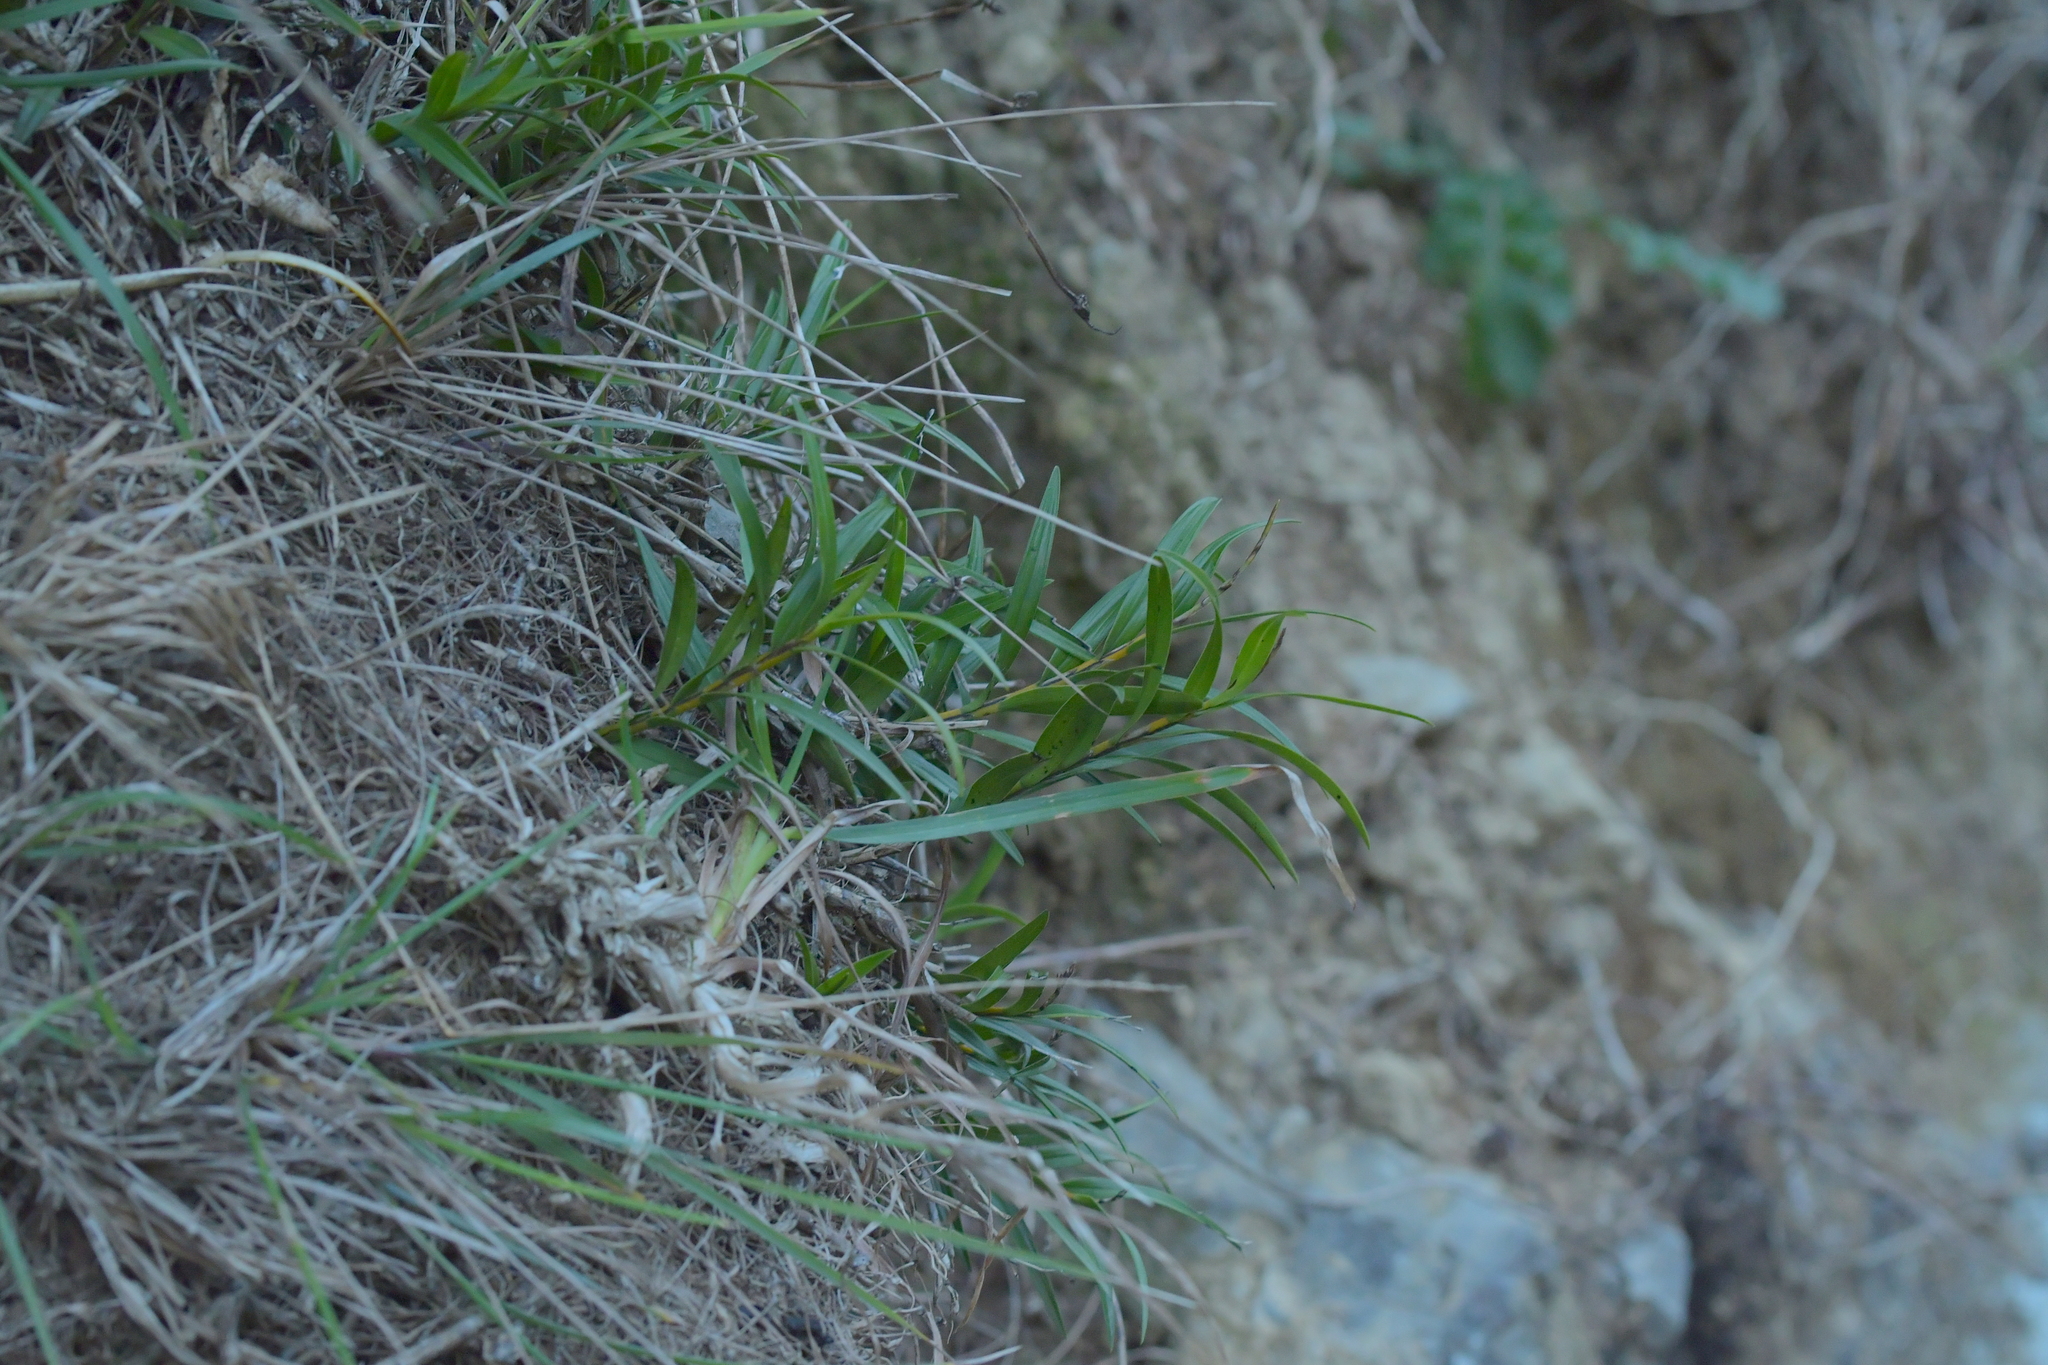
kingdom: Plantae
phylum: Tracheophyta
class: Liliopsida
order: Asparagales
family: Orchidaceae
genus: Earina
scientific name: Earina autumnalis
